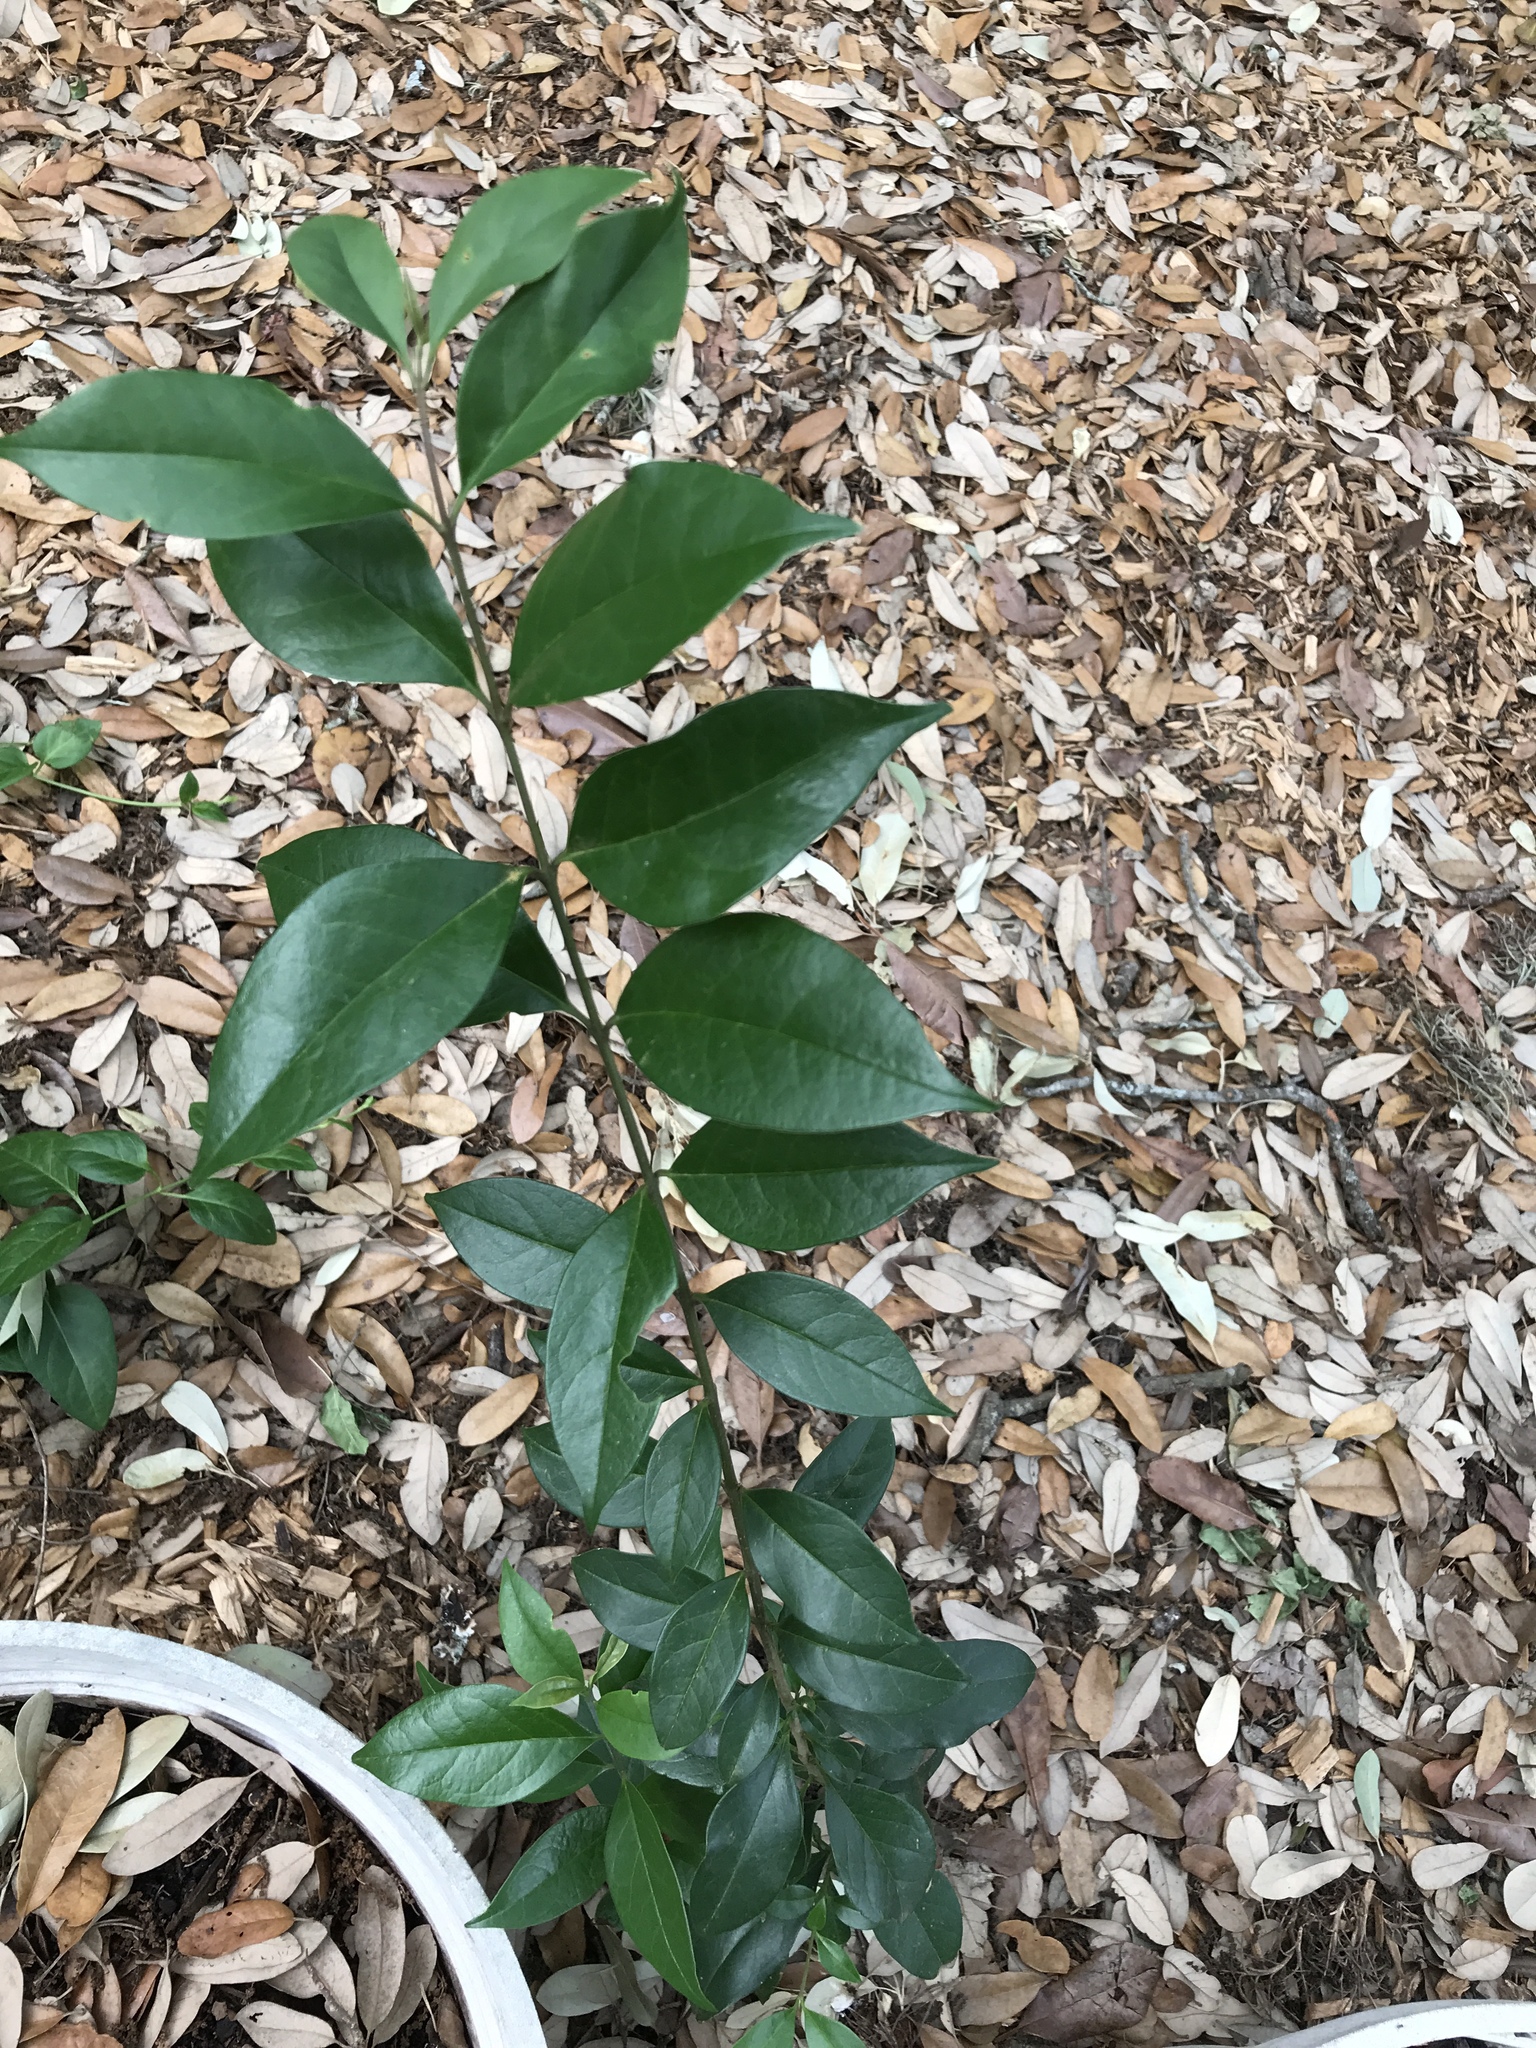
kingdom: Plantae
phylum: Tracheophyta
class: Magnoliopsida
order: Lamiales
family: Oleaceae
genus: Ligustrum
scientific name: Ligustrum lucidum
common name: Glossy privet
